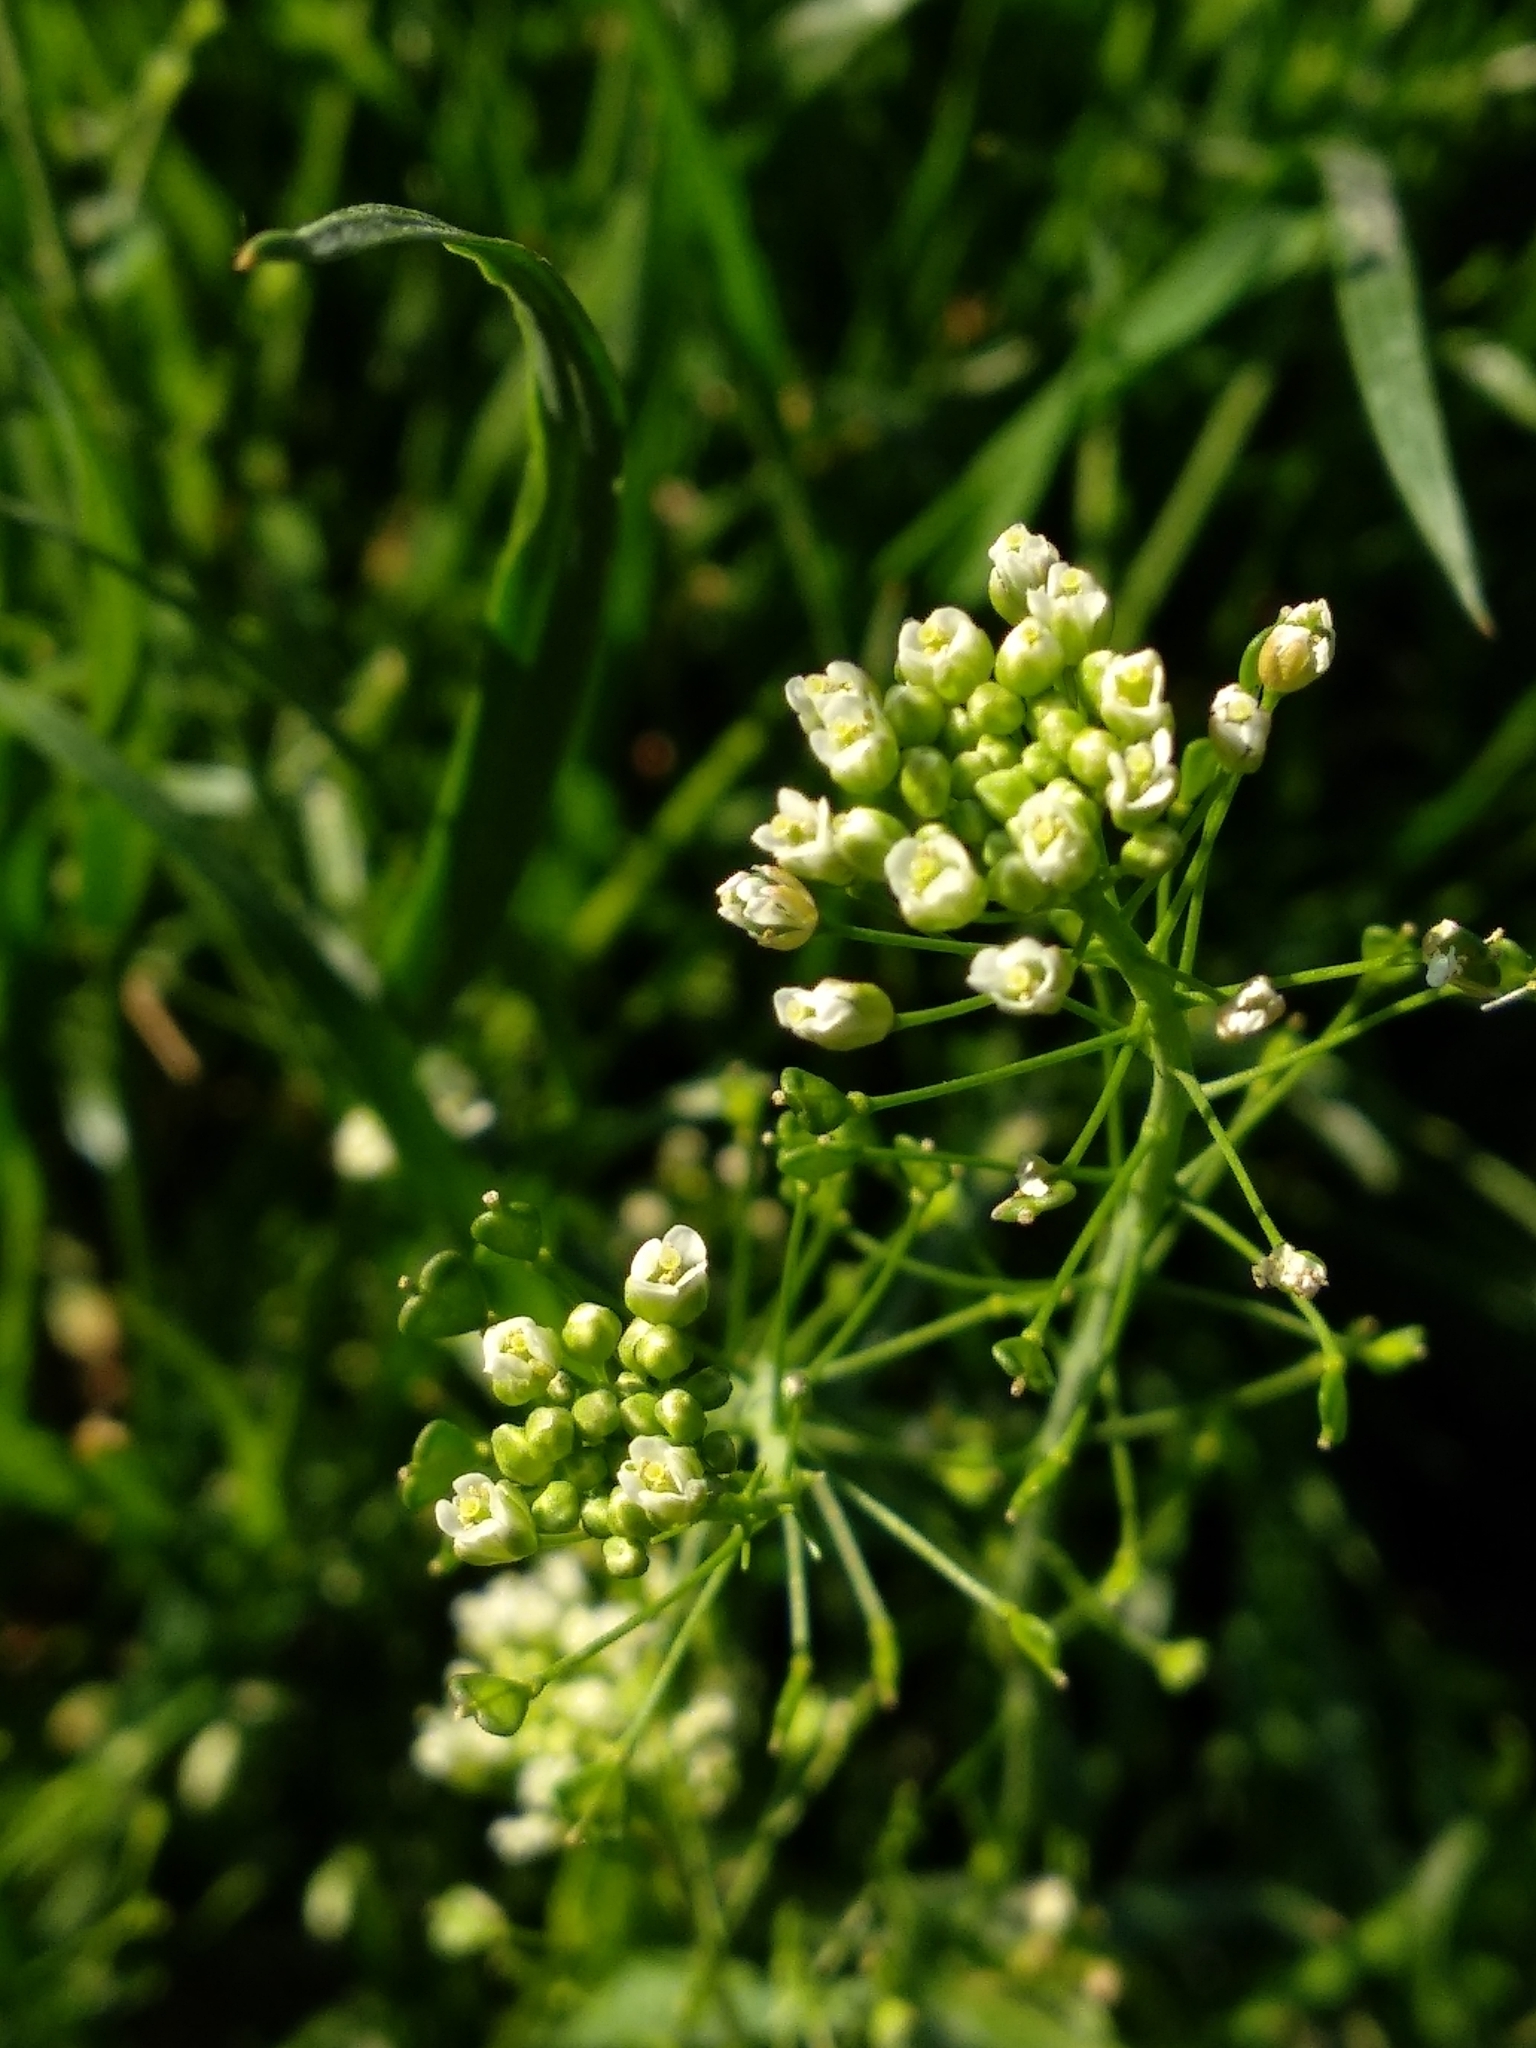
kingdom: Plantae
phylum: Tracheophyta
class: Magnoliopsida
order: Brassicales
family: Brassicaceae
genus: Capsella
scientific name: Capsella bursa-pastoris
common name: Shepherd's purse
